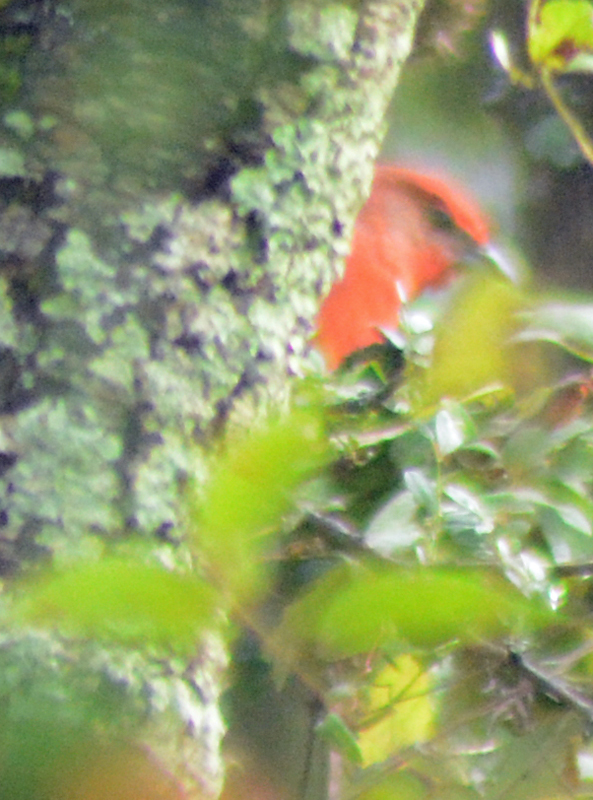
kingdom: Animalia
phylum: Chordata
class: Aves
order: Passeriformes
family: Cardinalidae
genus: Piranga
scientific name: Piranga flava
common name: Red tanager
